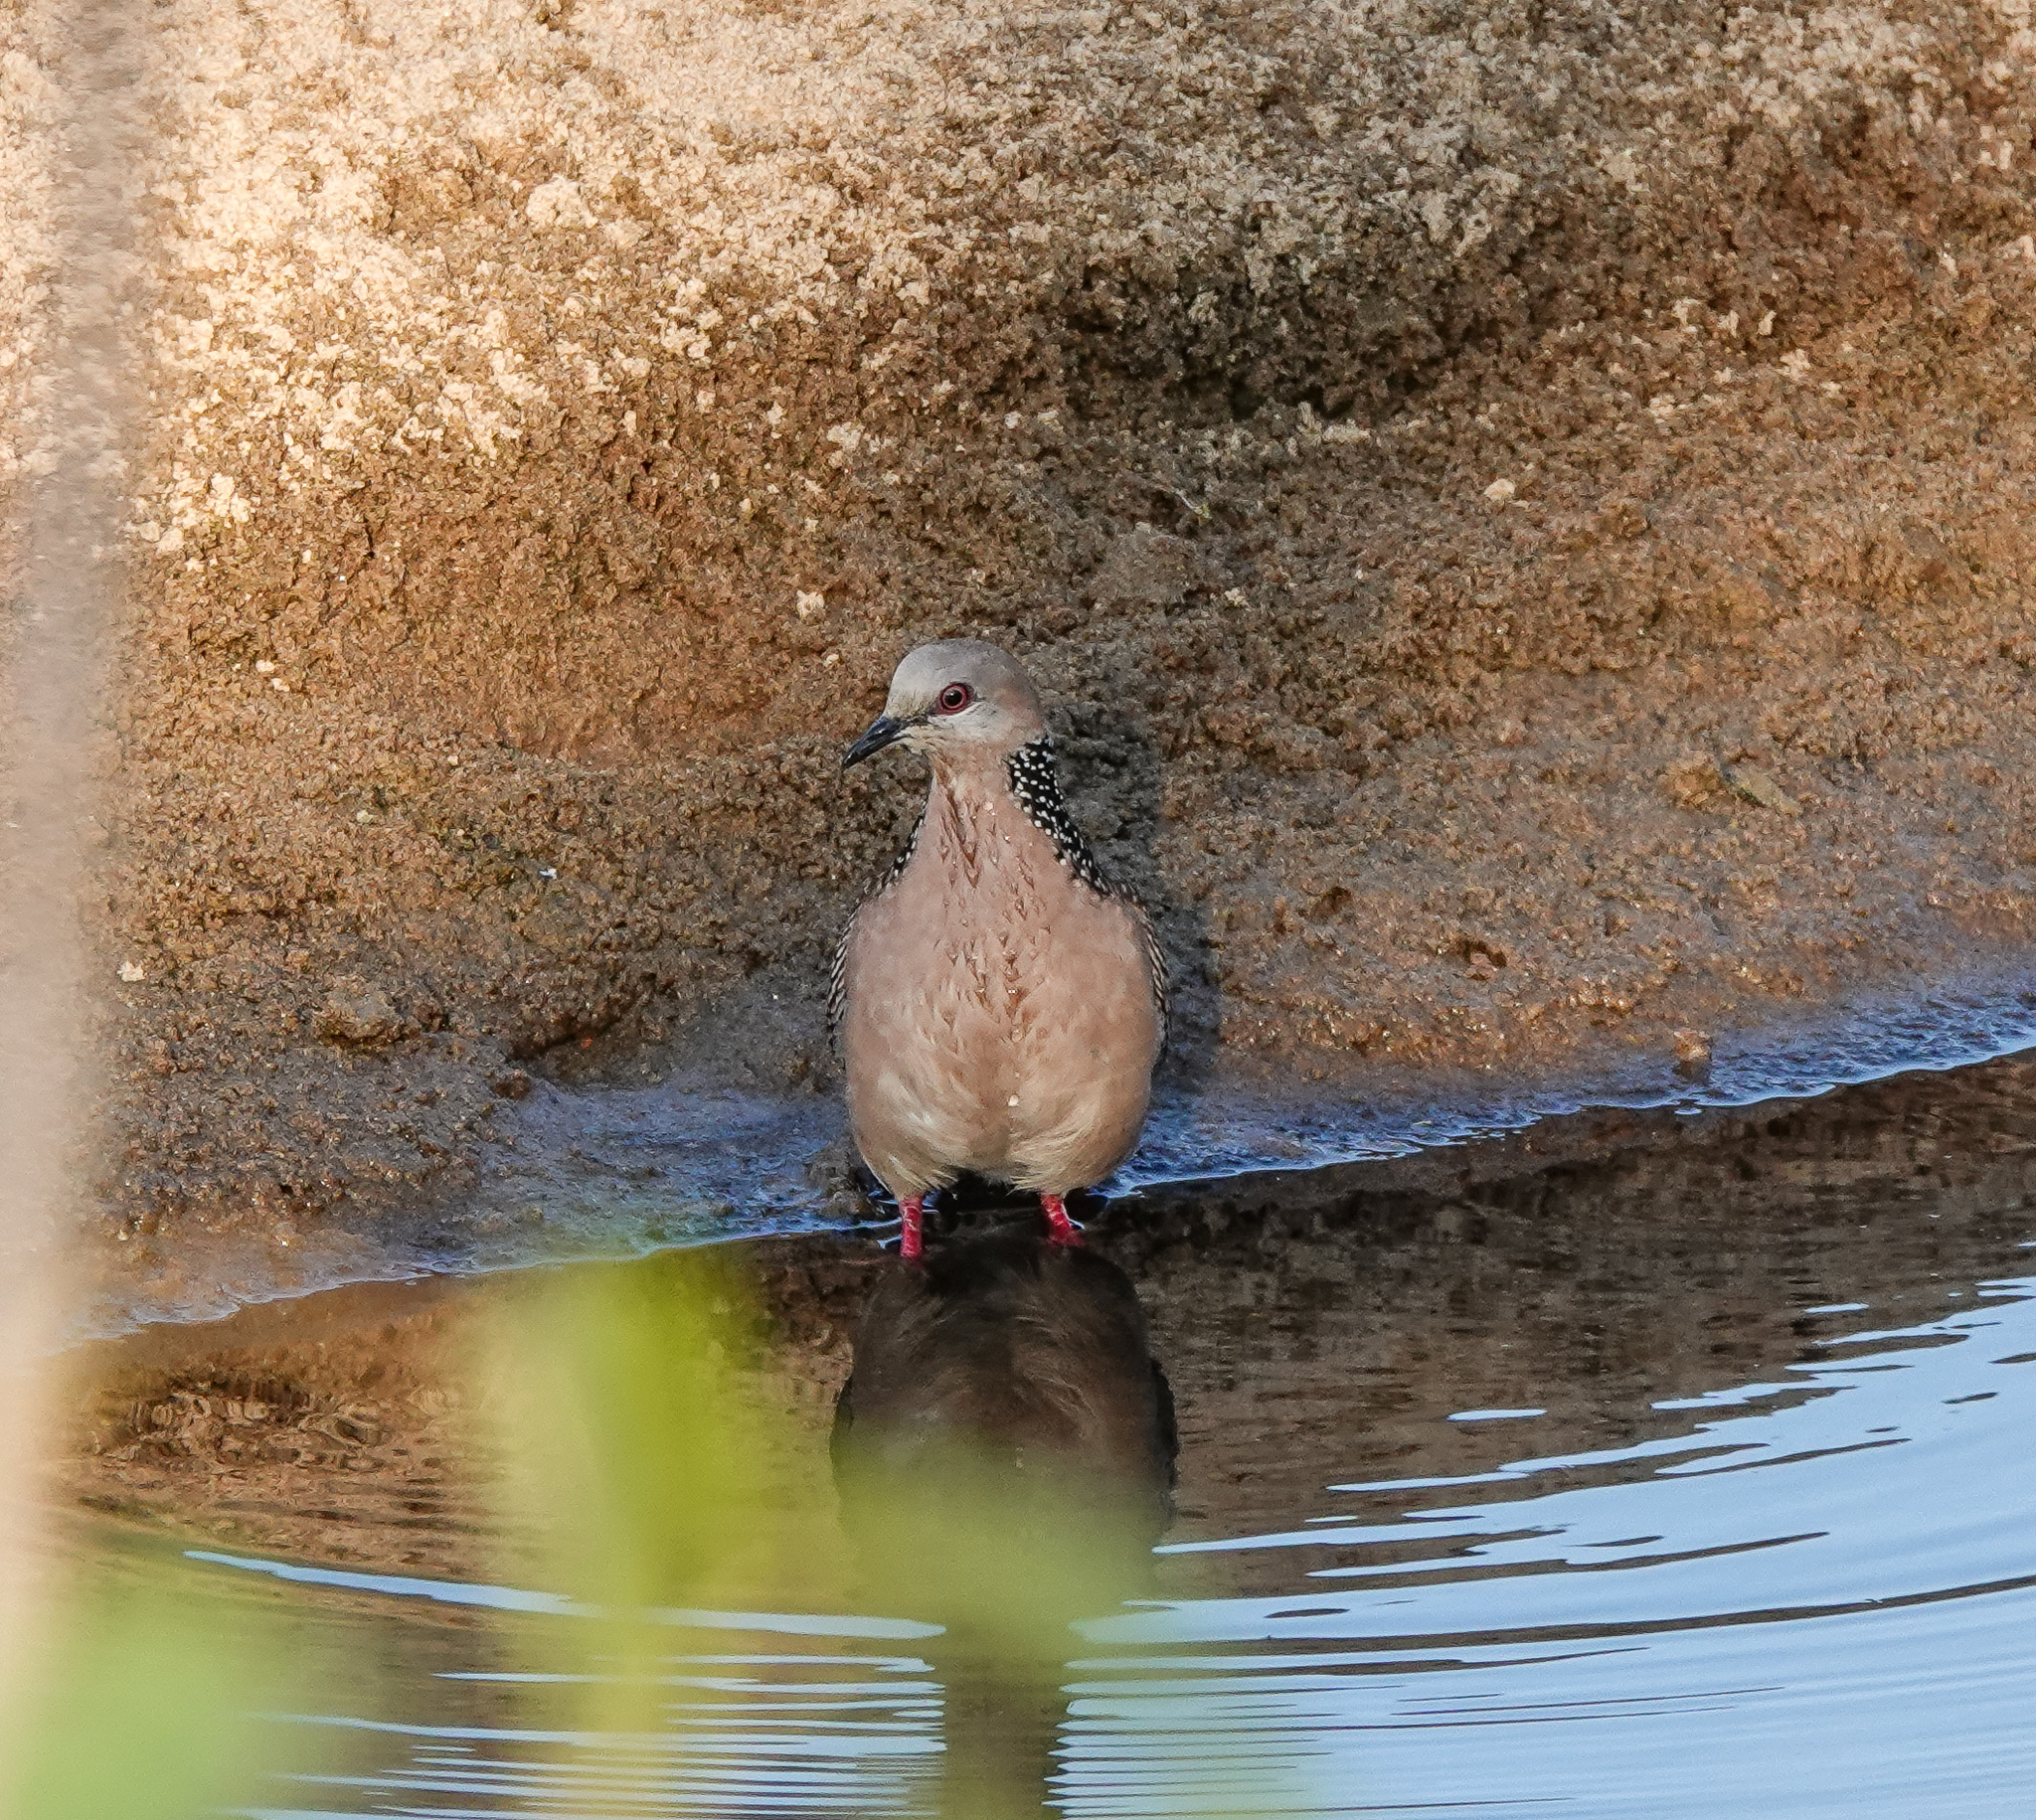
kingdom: Animalia
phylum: Chordata
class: Aves
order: Columbiformes
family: Columbidae
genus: Spilopelia
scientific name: Spilopelia chinensis
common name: Spotted dove
